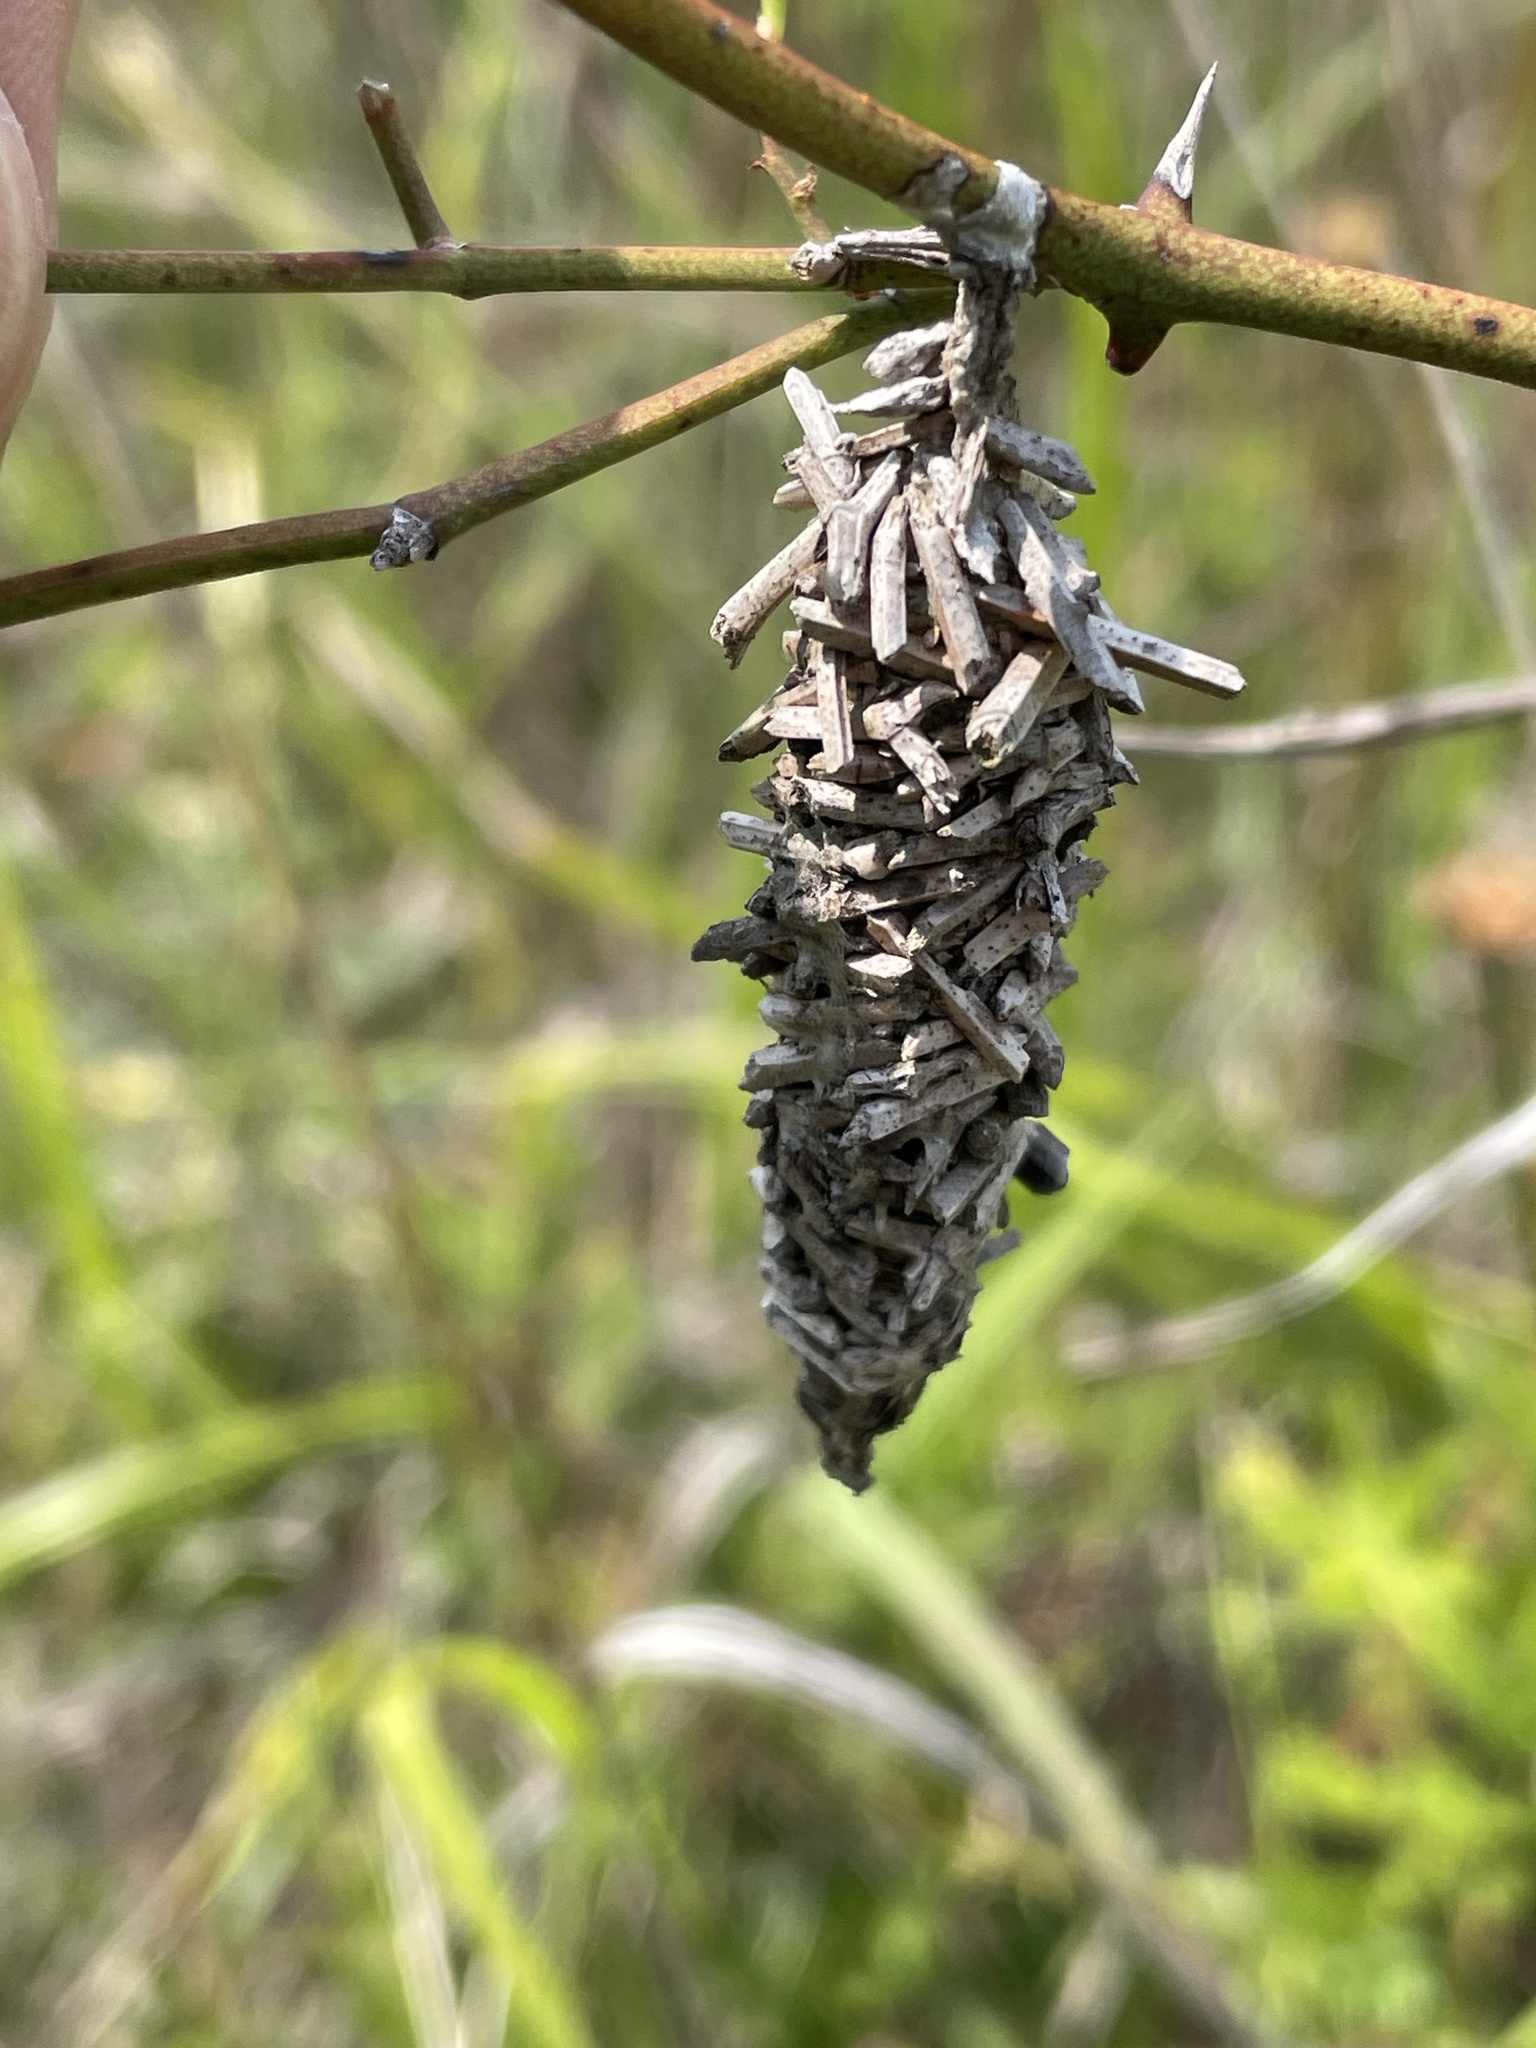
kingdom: Animalia
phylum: Arthropoda
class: Insecta
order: Lepidoptera
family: Psychidae
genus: Oiketicus
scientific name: Oiketicus
